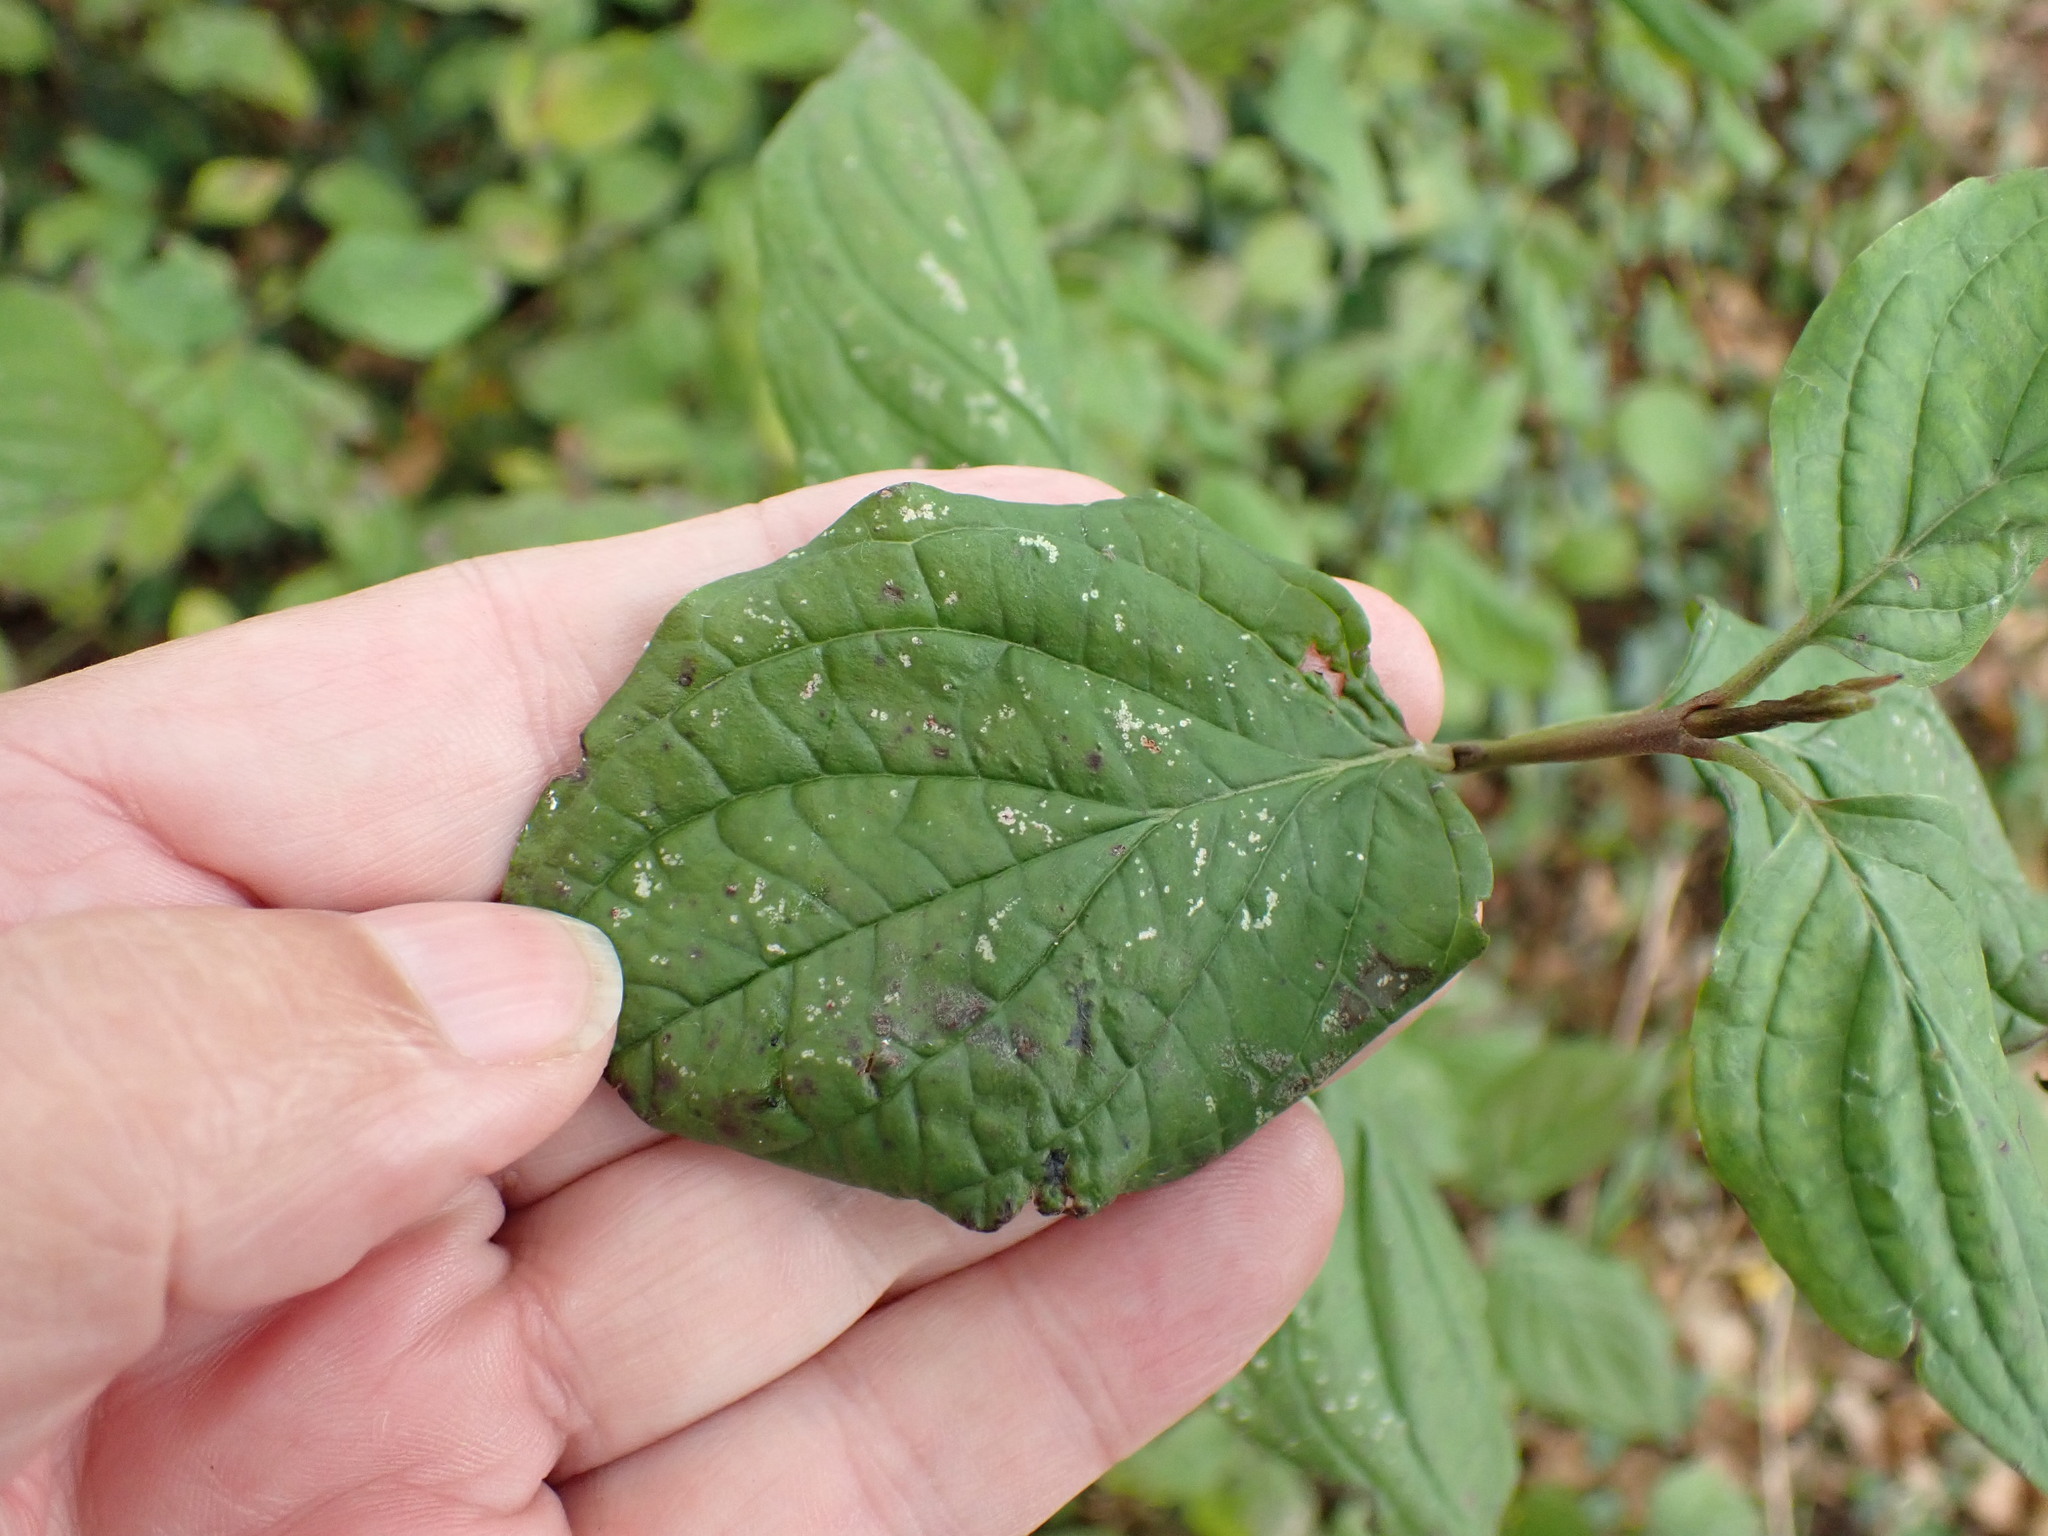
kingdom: Plantae
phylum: Tracheophyta
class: Magnoliopsida
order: Cornales
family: Cornaceae
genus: Cornus
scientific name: Cornus sanguinea
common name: Dogwood
